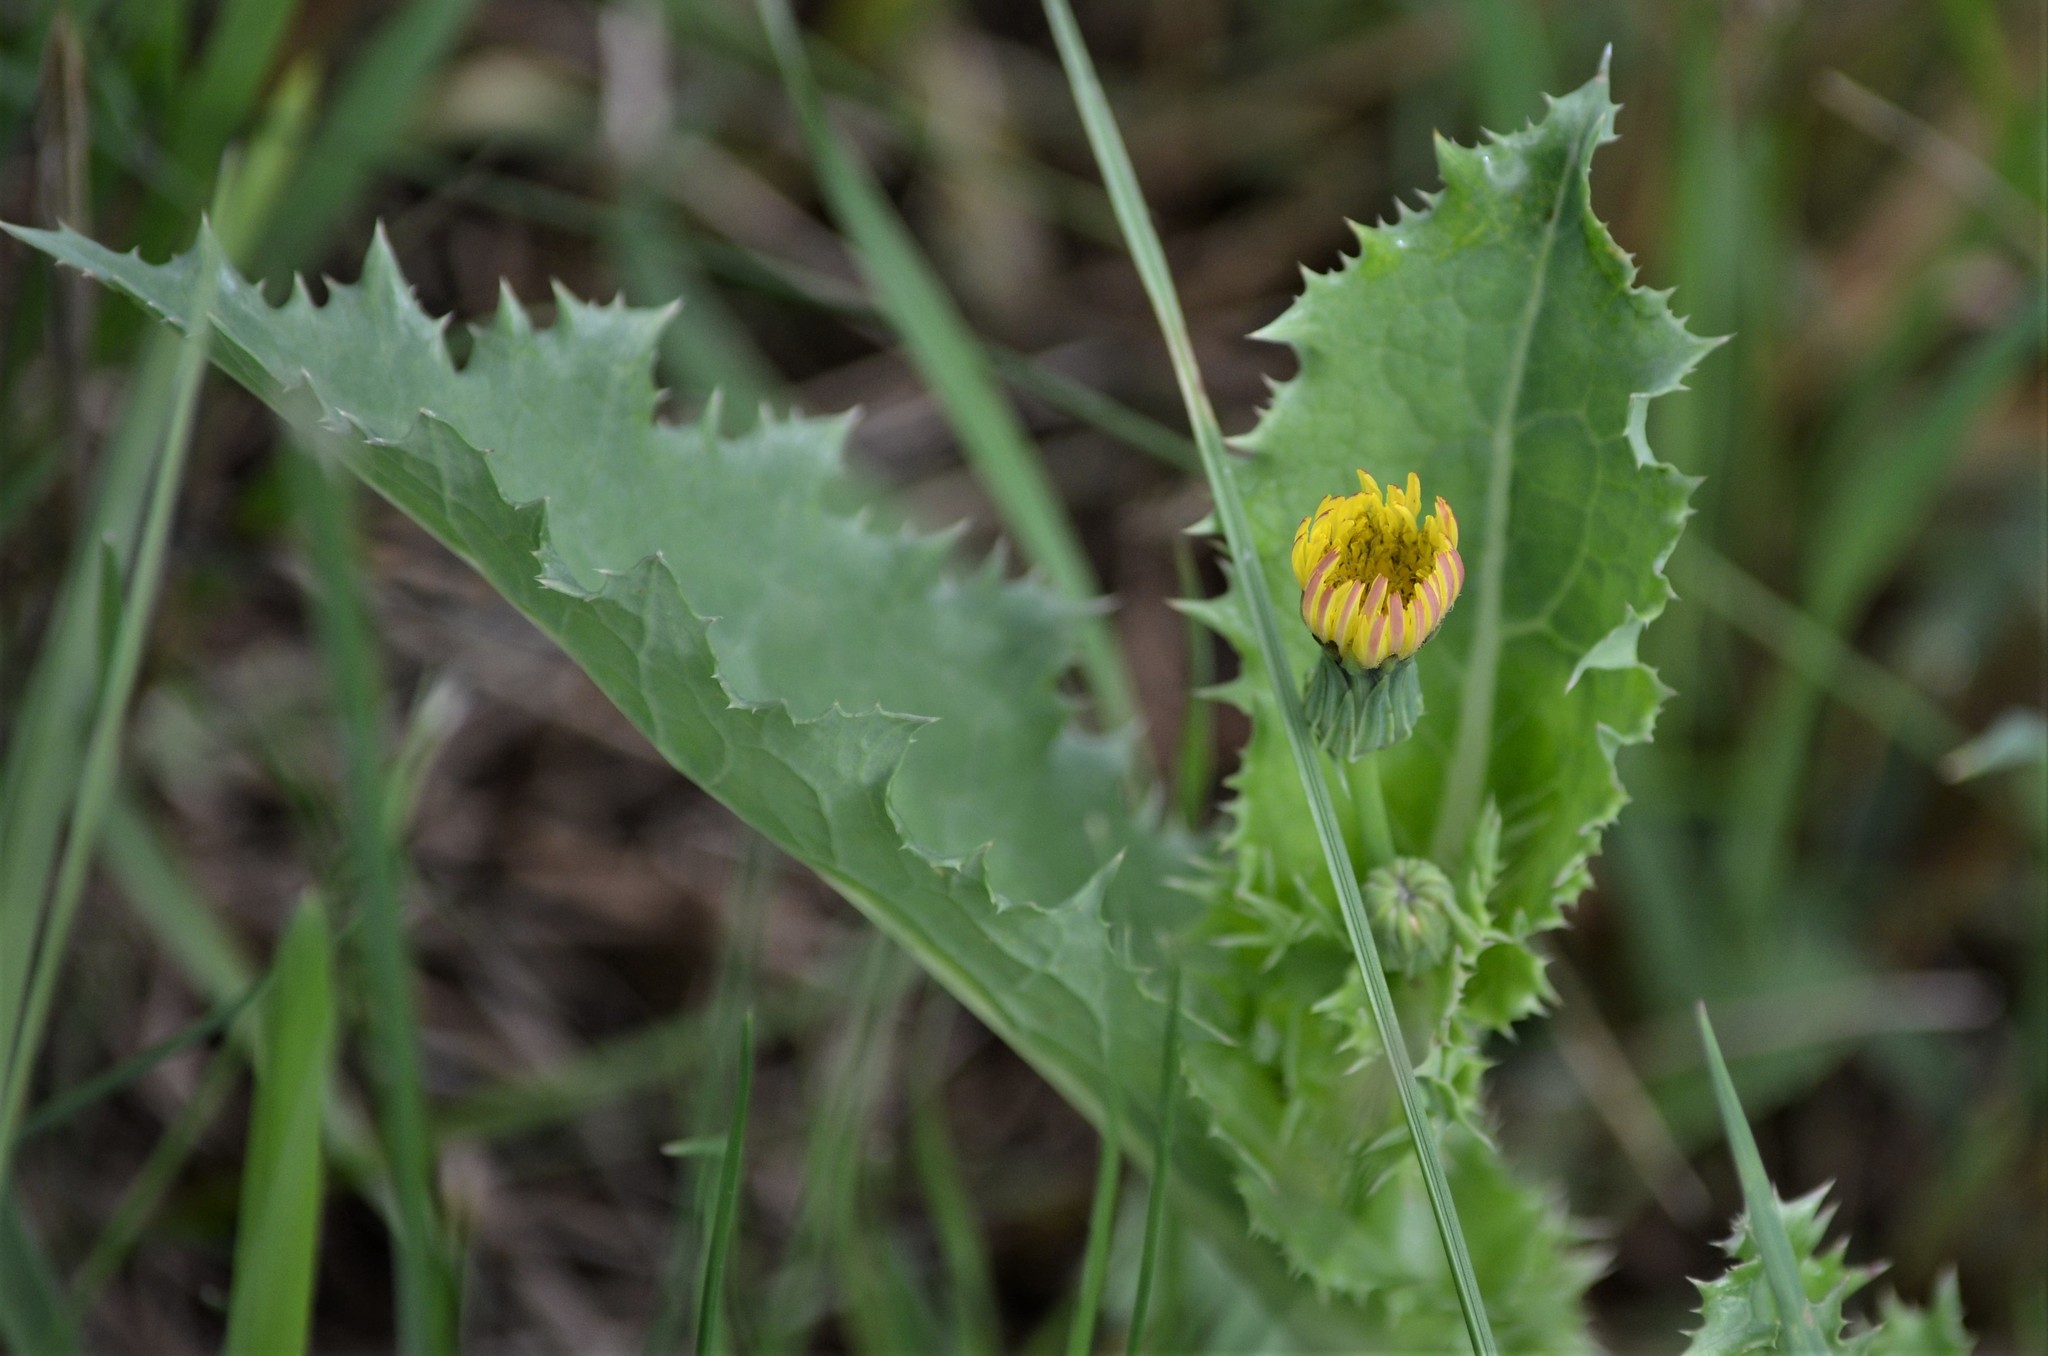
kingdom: Plantae
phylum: Tracheophyta
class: Magnoliopsida
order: Asterales
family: Asteraceae
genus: Sonchus
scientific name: Sonchus asper
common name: Prickly sow-thistle
